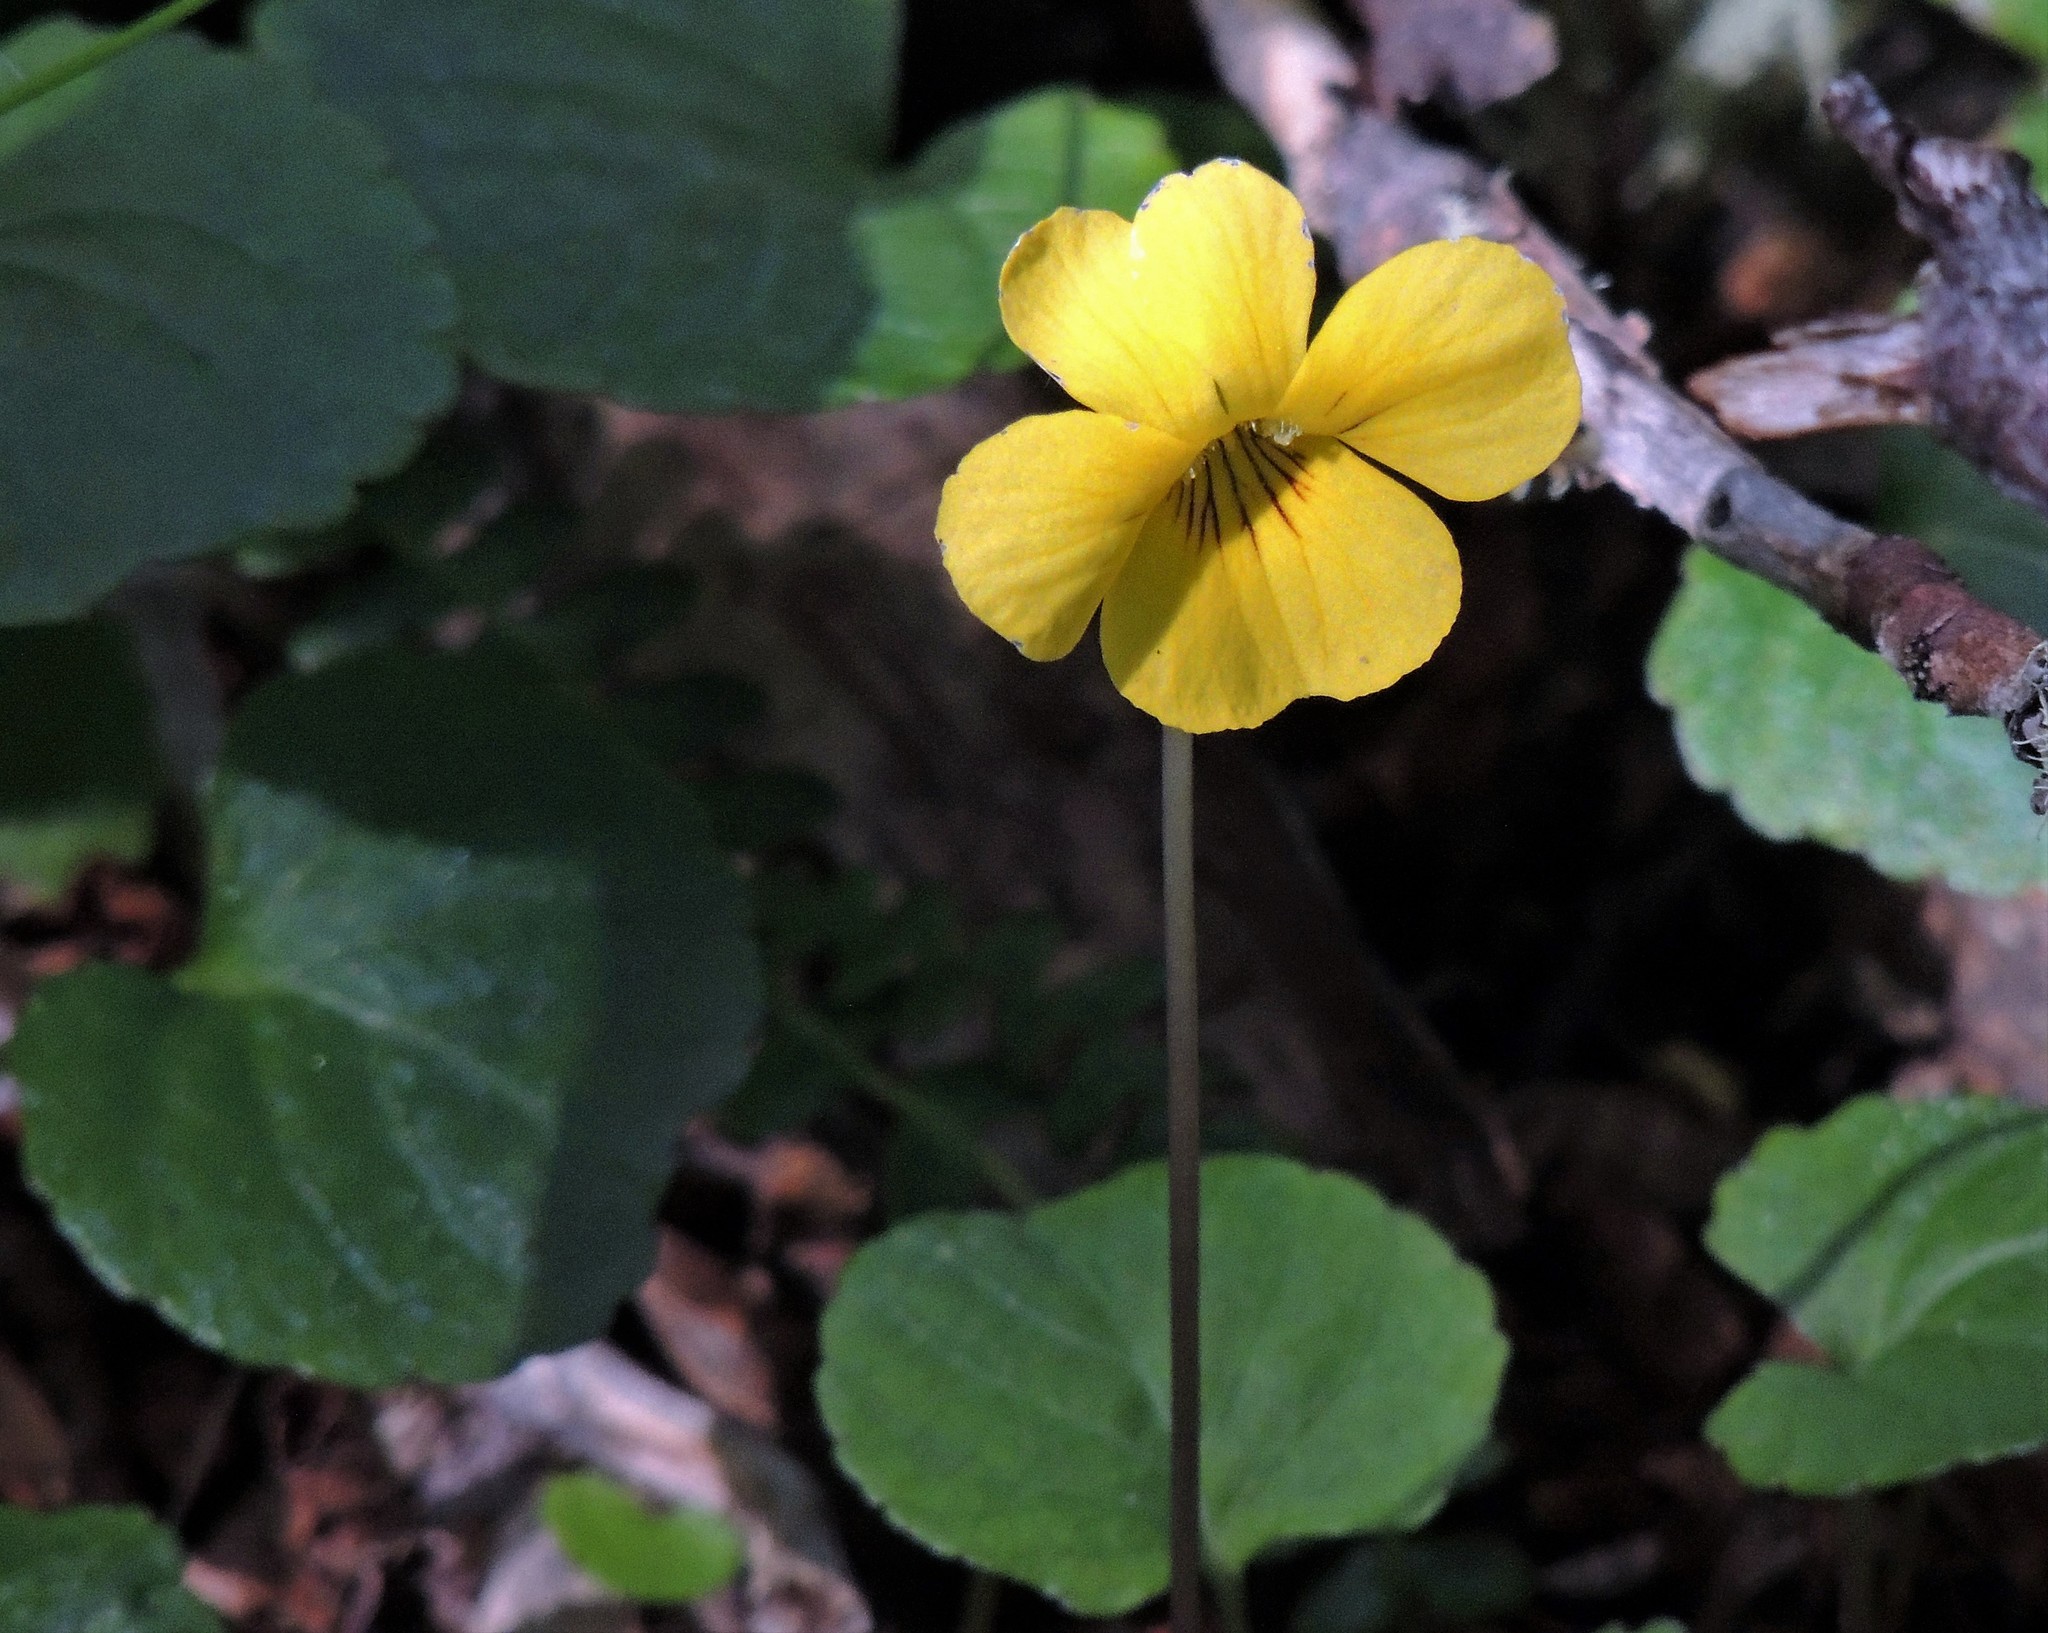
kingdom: Plantae
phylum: Tracheophyta
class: Magnoliopsida
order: Malpighiales
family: Violaceae
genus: Viola
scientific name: Viola magellanica
